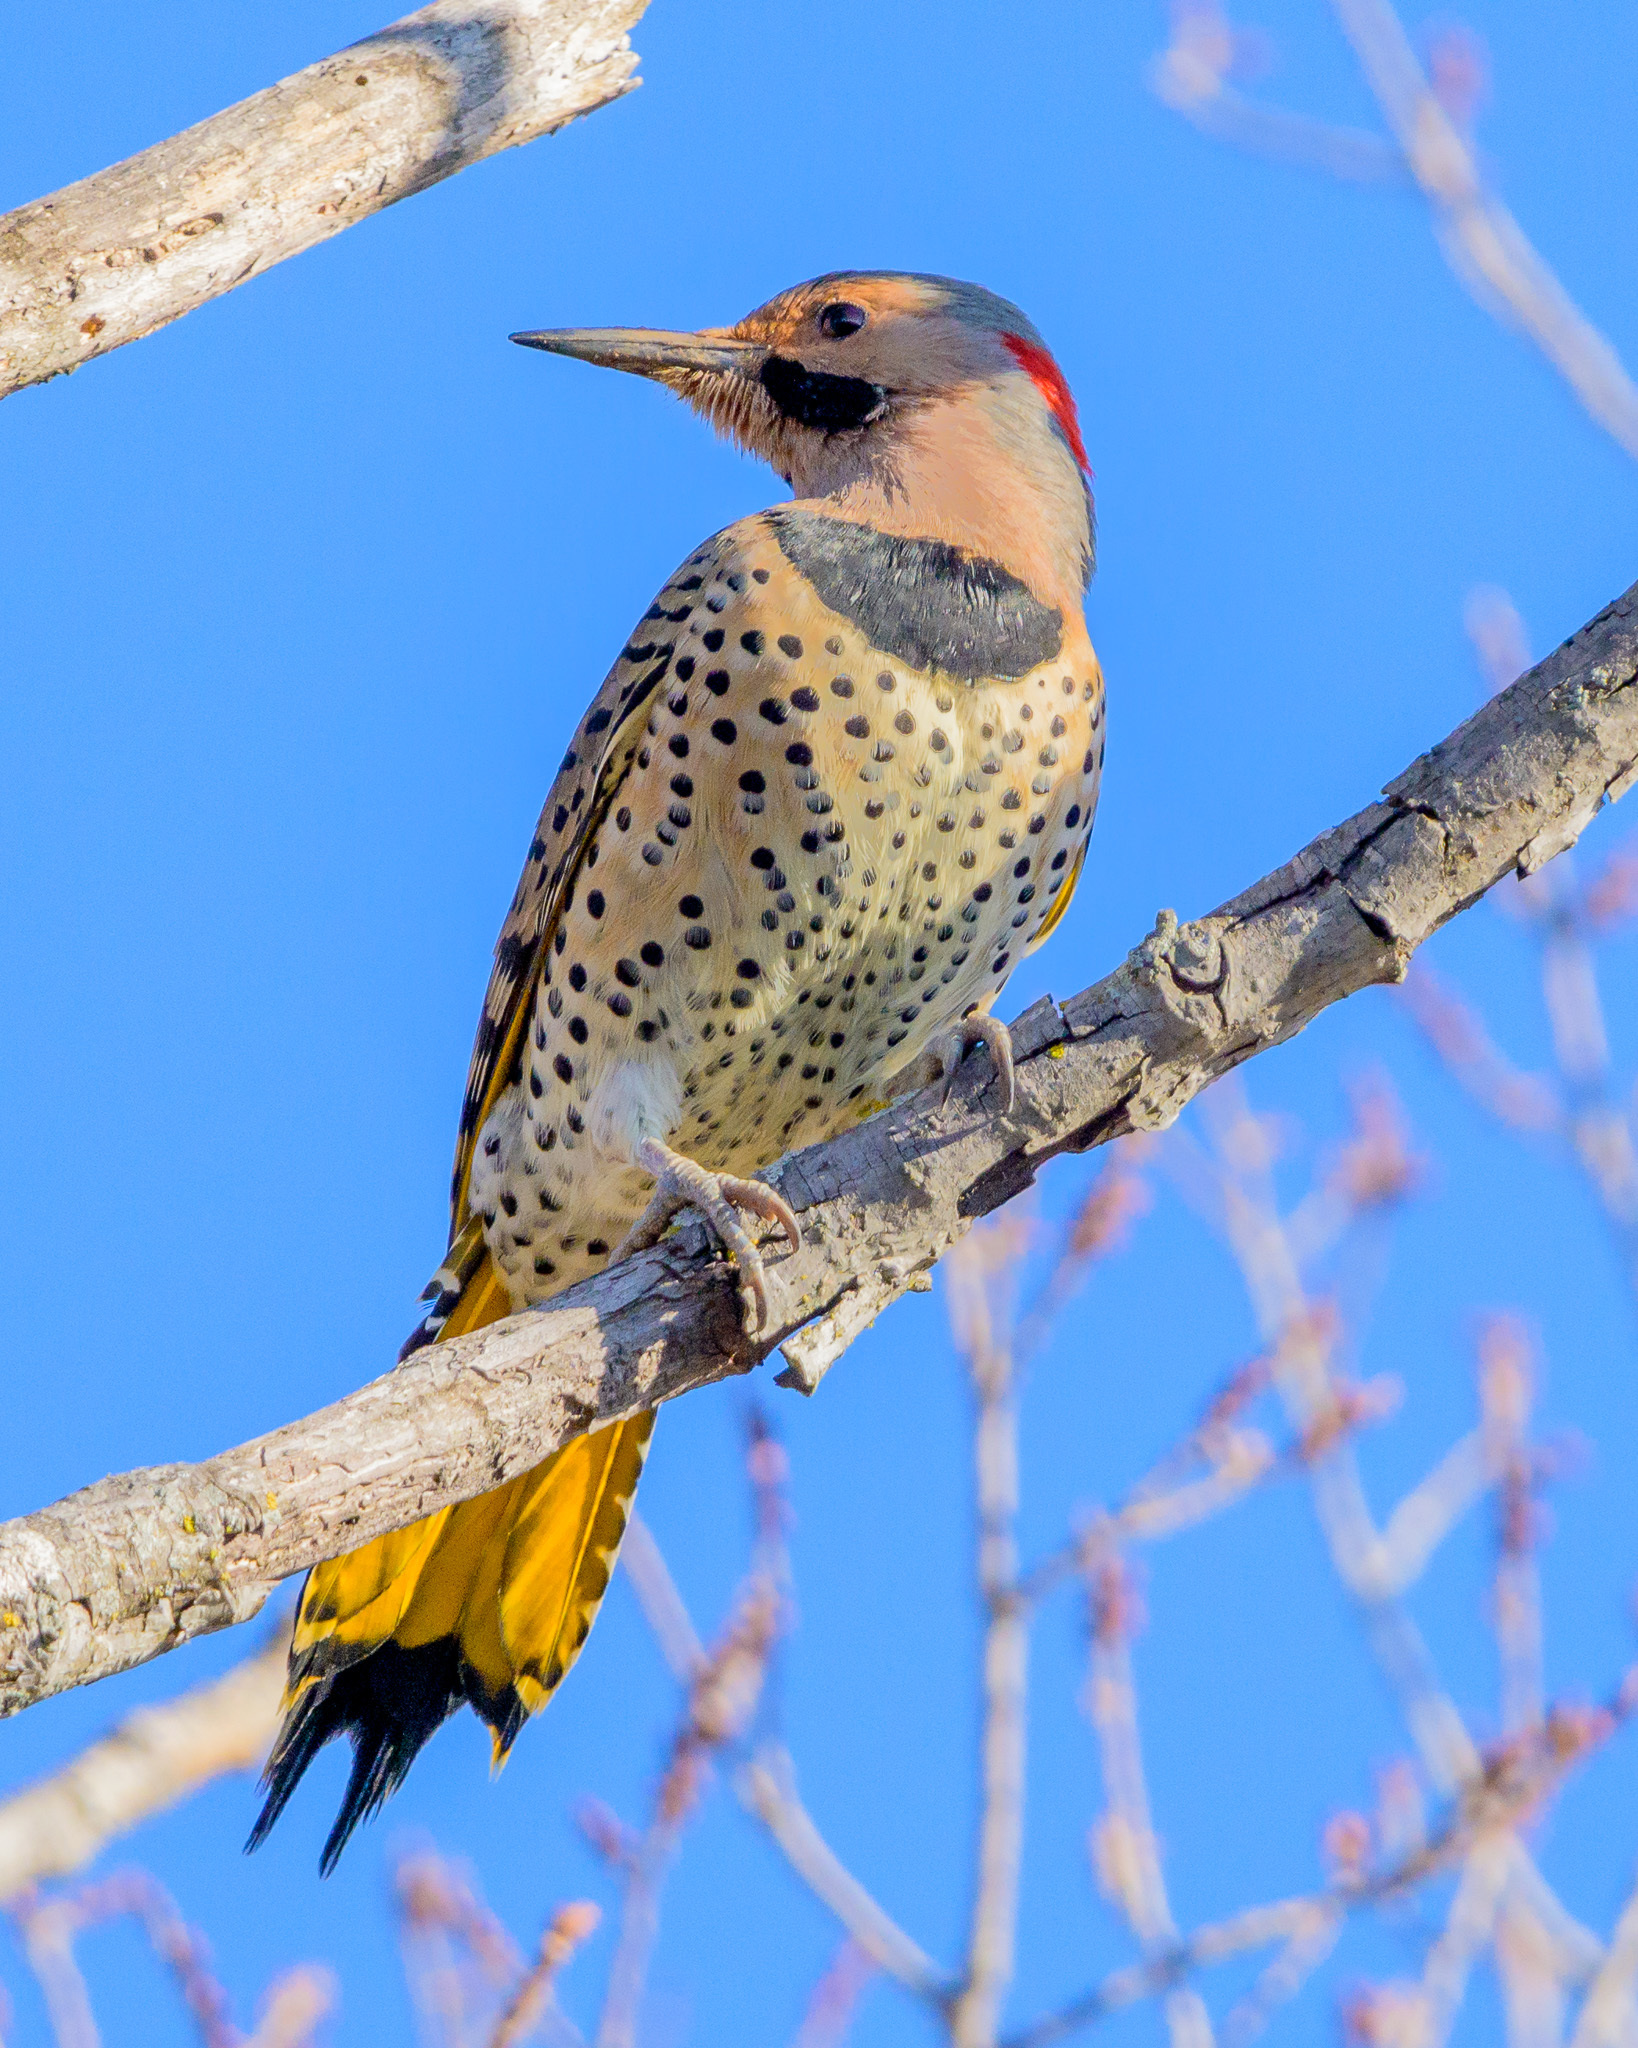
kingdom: Animalia
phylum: Chordata
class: Aves
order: Piciformes
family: Picidae
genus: Colaptes
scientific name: Colaptes auratus
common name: Northern flicker
